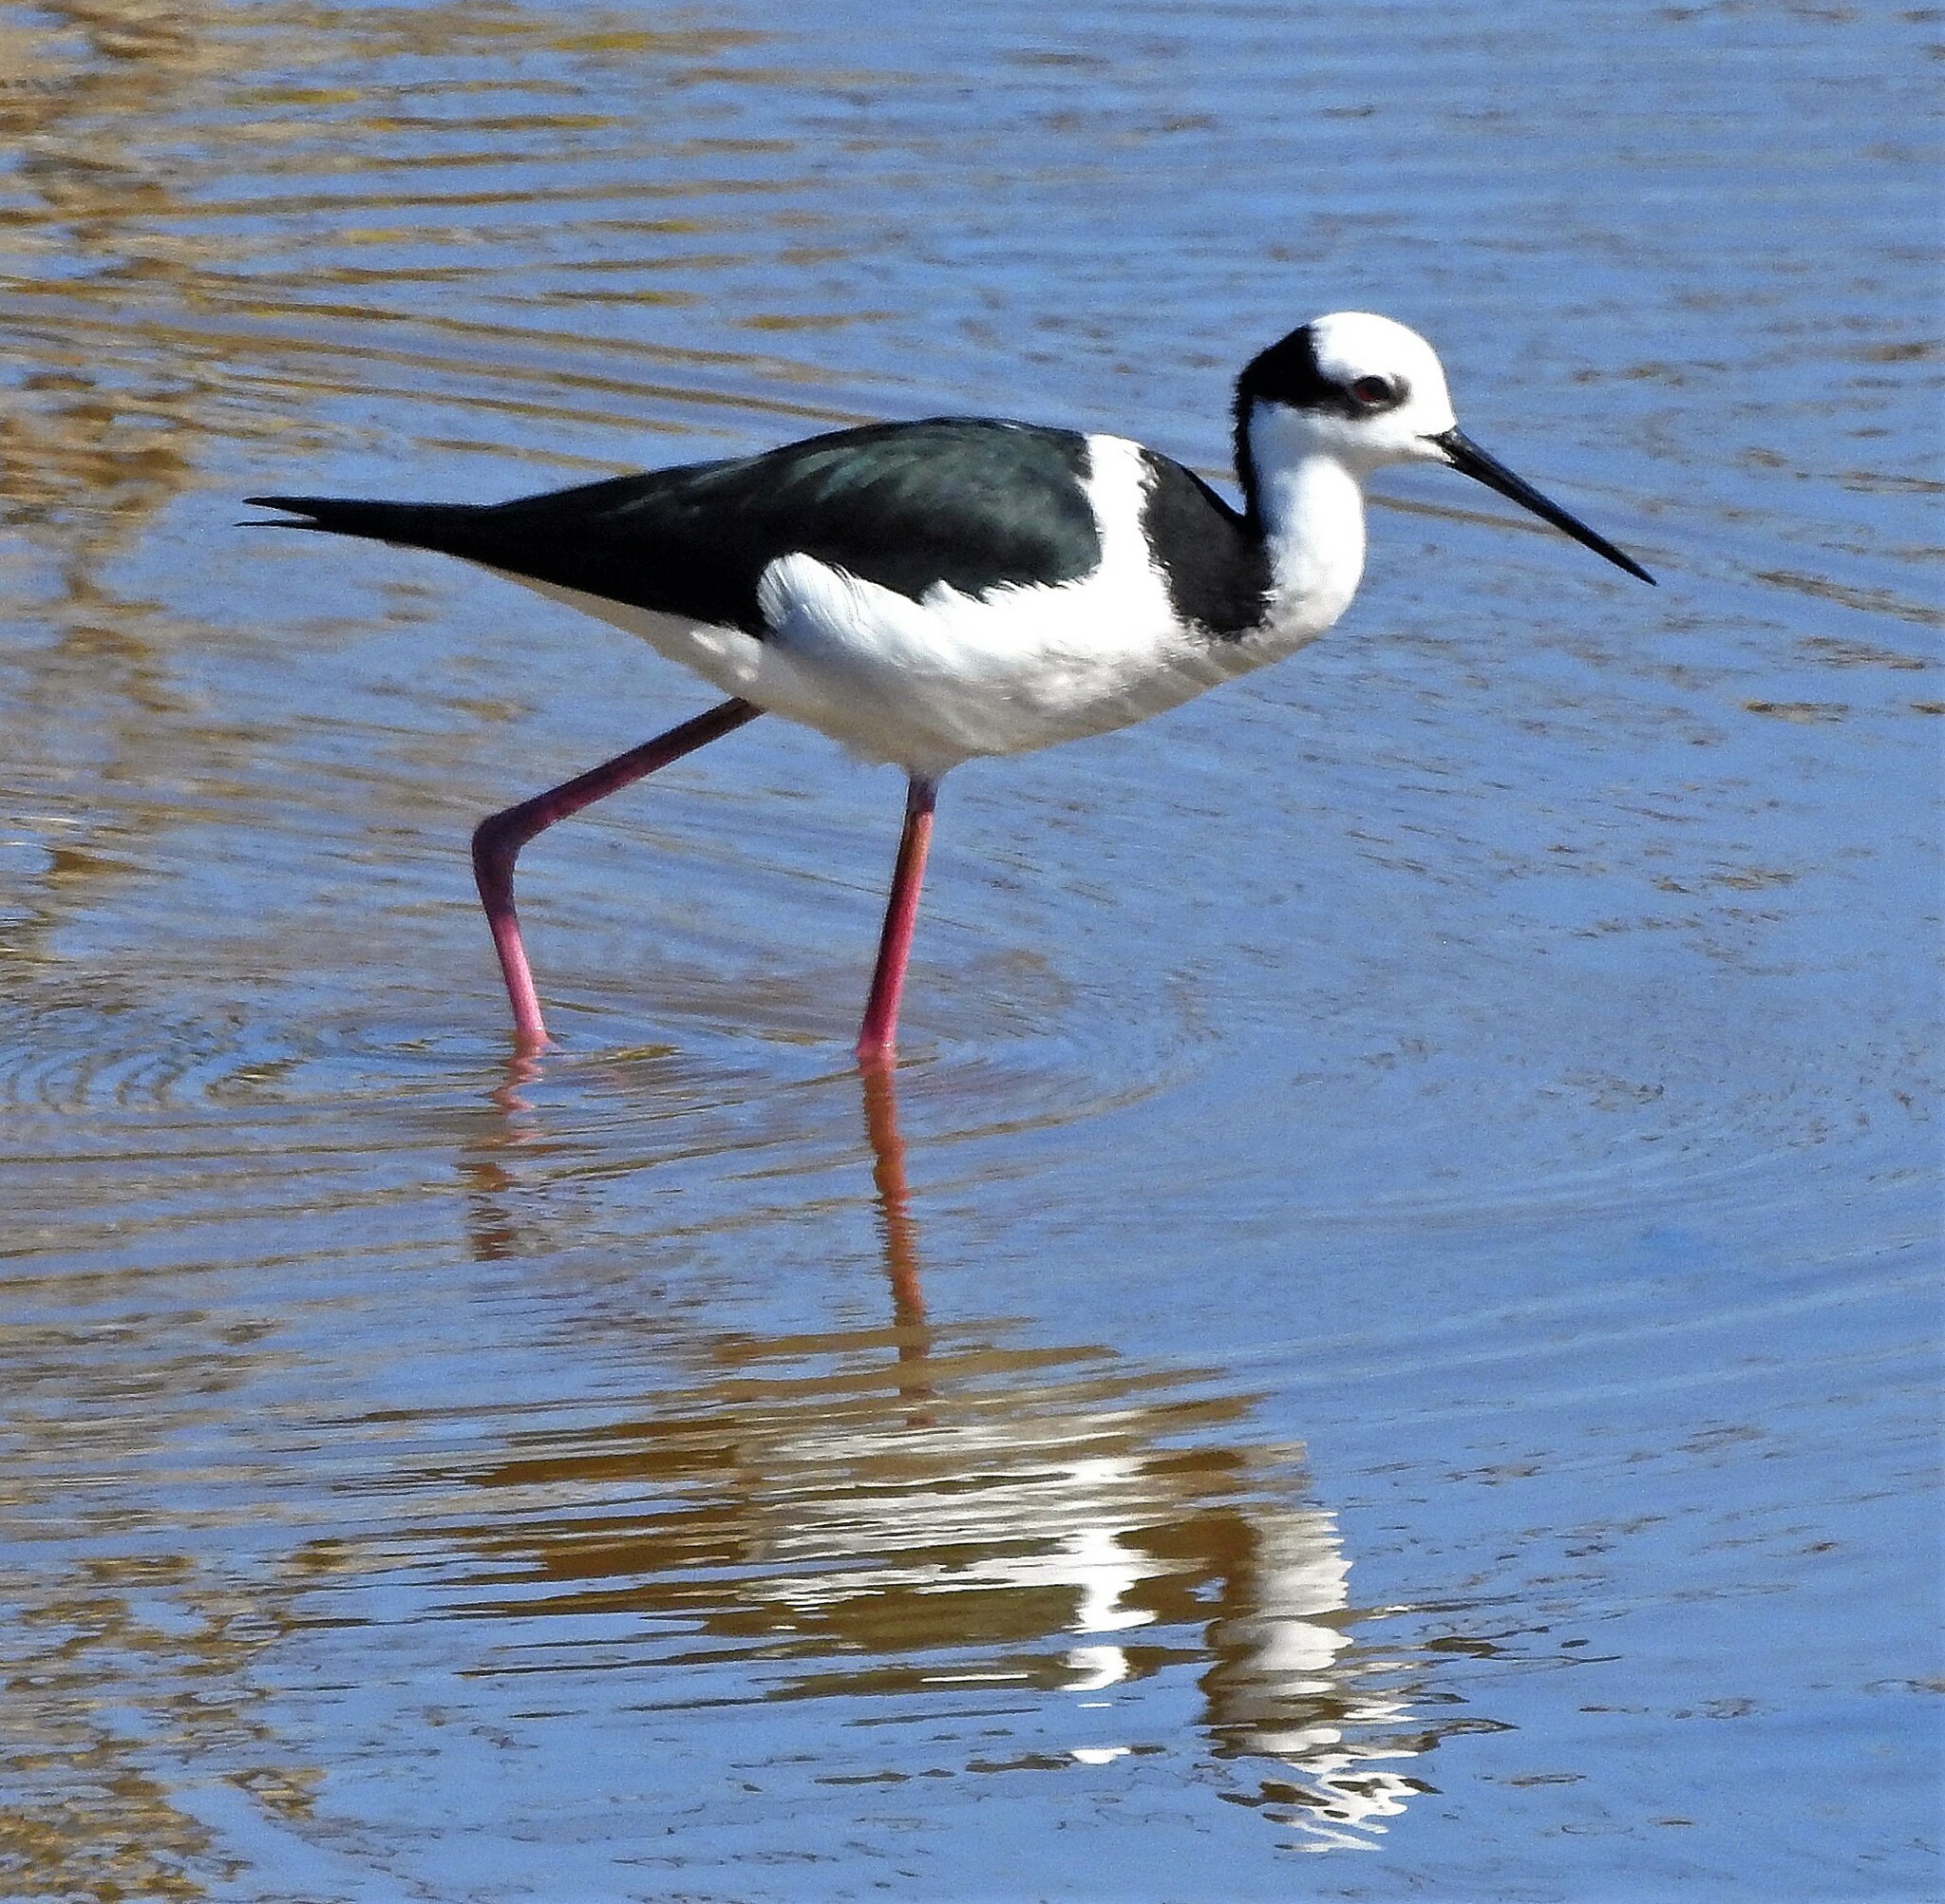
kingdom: Animalia
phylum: Chordata
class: Aves
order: Charadriiformes
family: Recurvirostridae
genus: Himantopus
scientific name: Himantopus mexicanus
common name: Black-necked stilt
